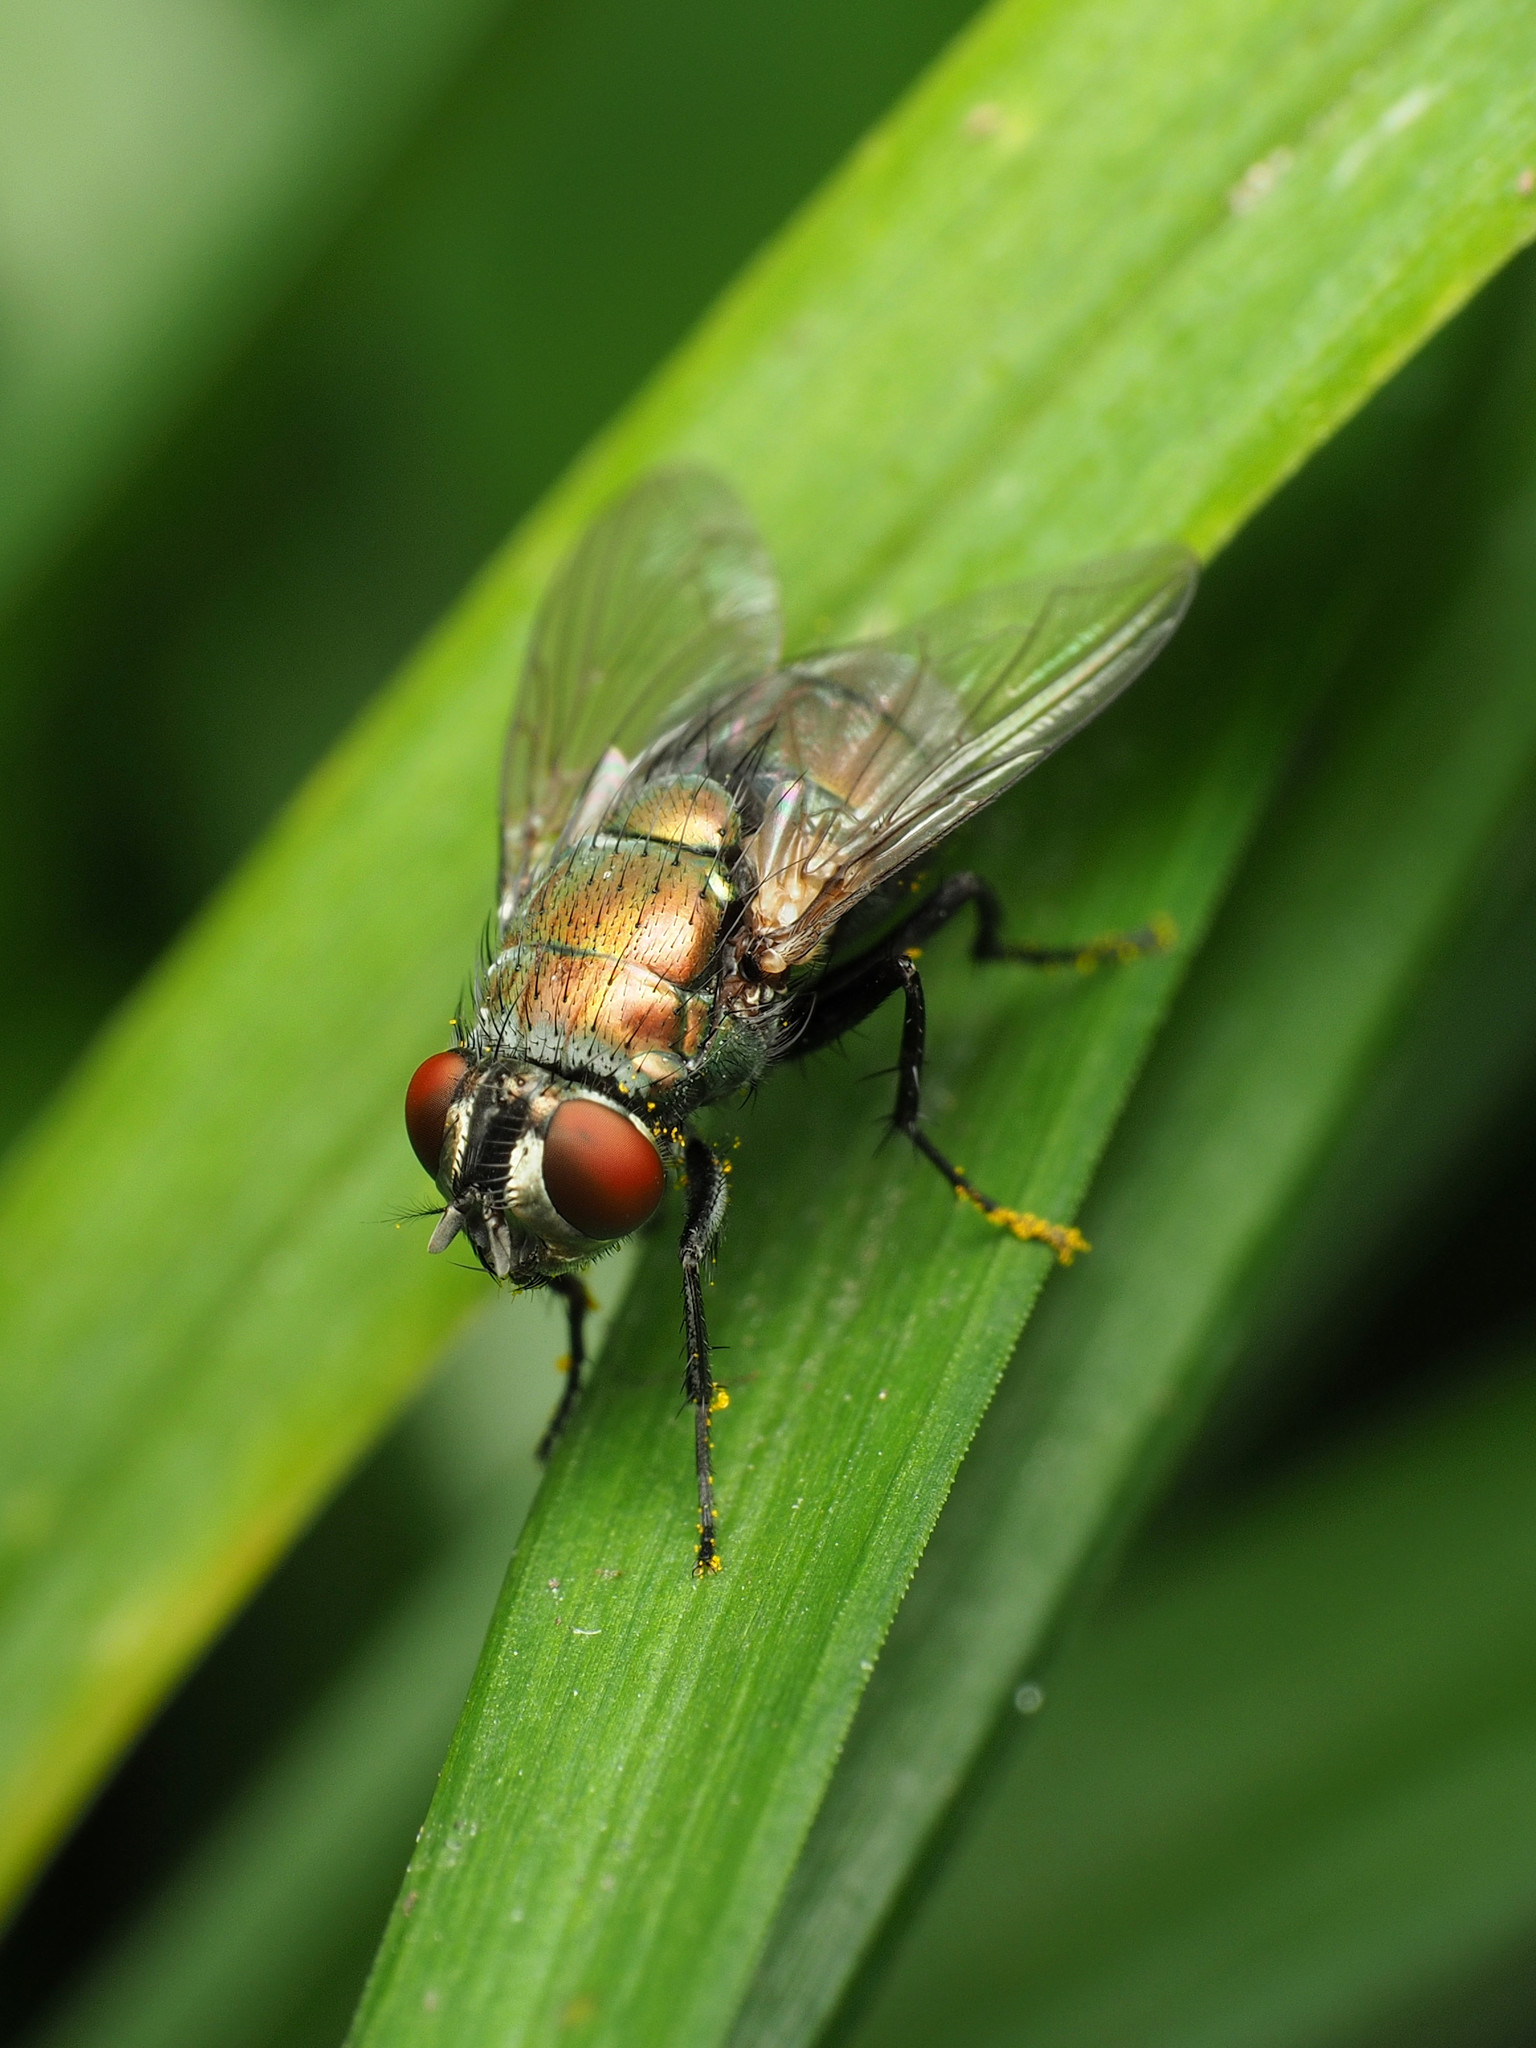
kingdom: Animalia
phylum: Arthropoda
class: Insecta
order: Diptera
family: Calliphoridae
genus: Lucilia
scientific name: Lucilia cuprina
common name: Sheep blow fly
